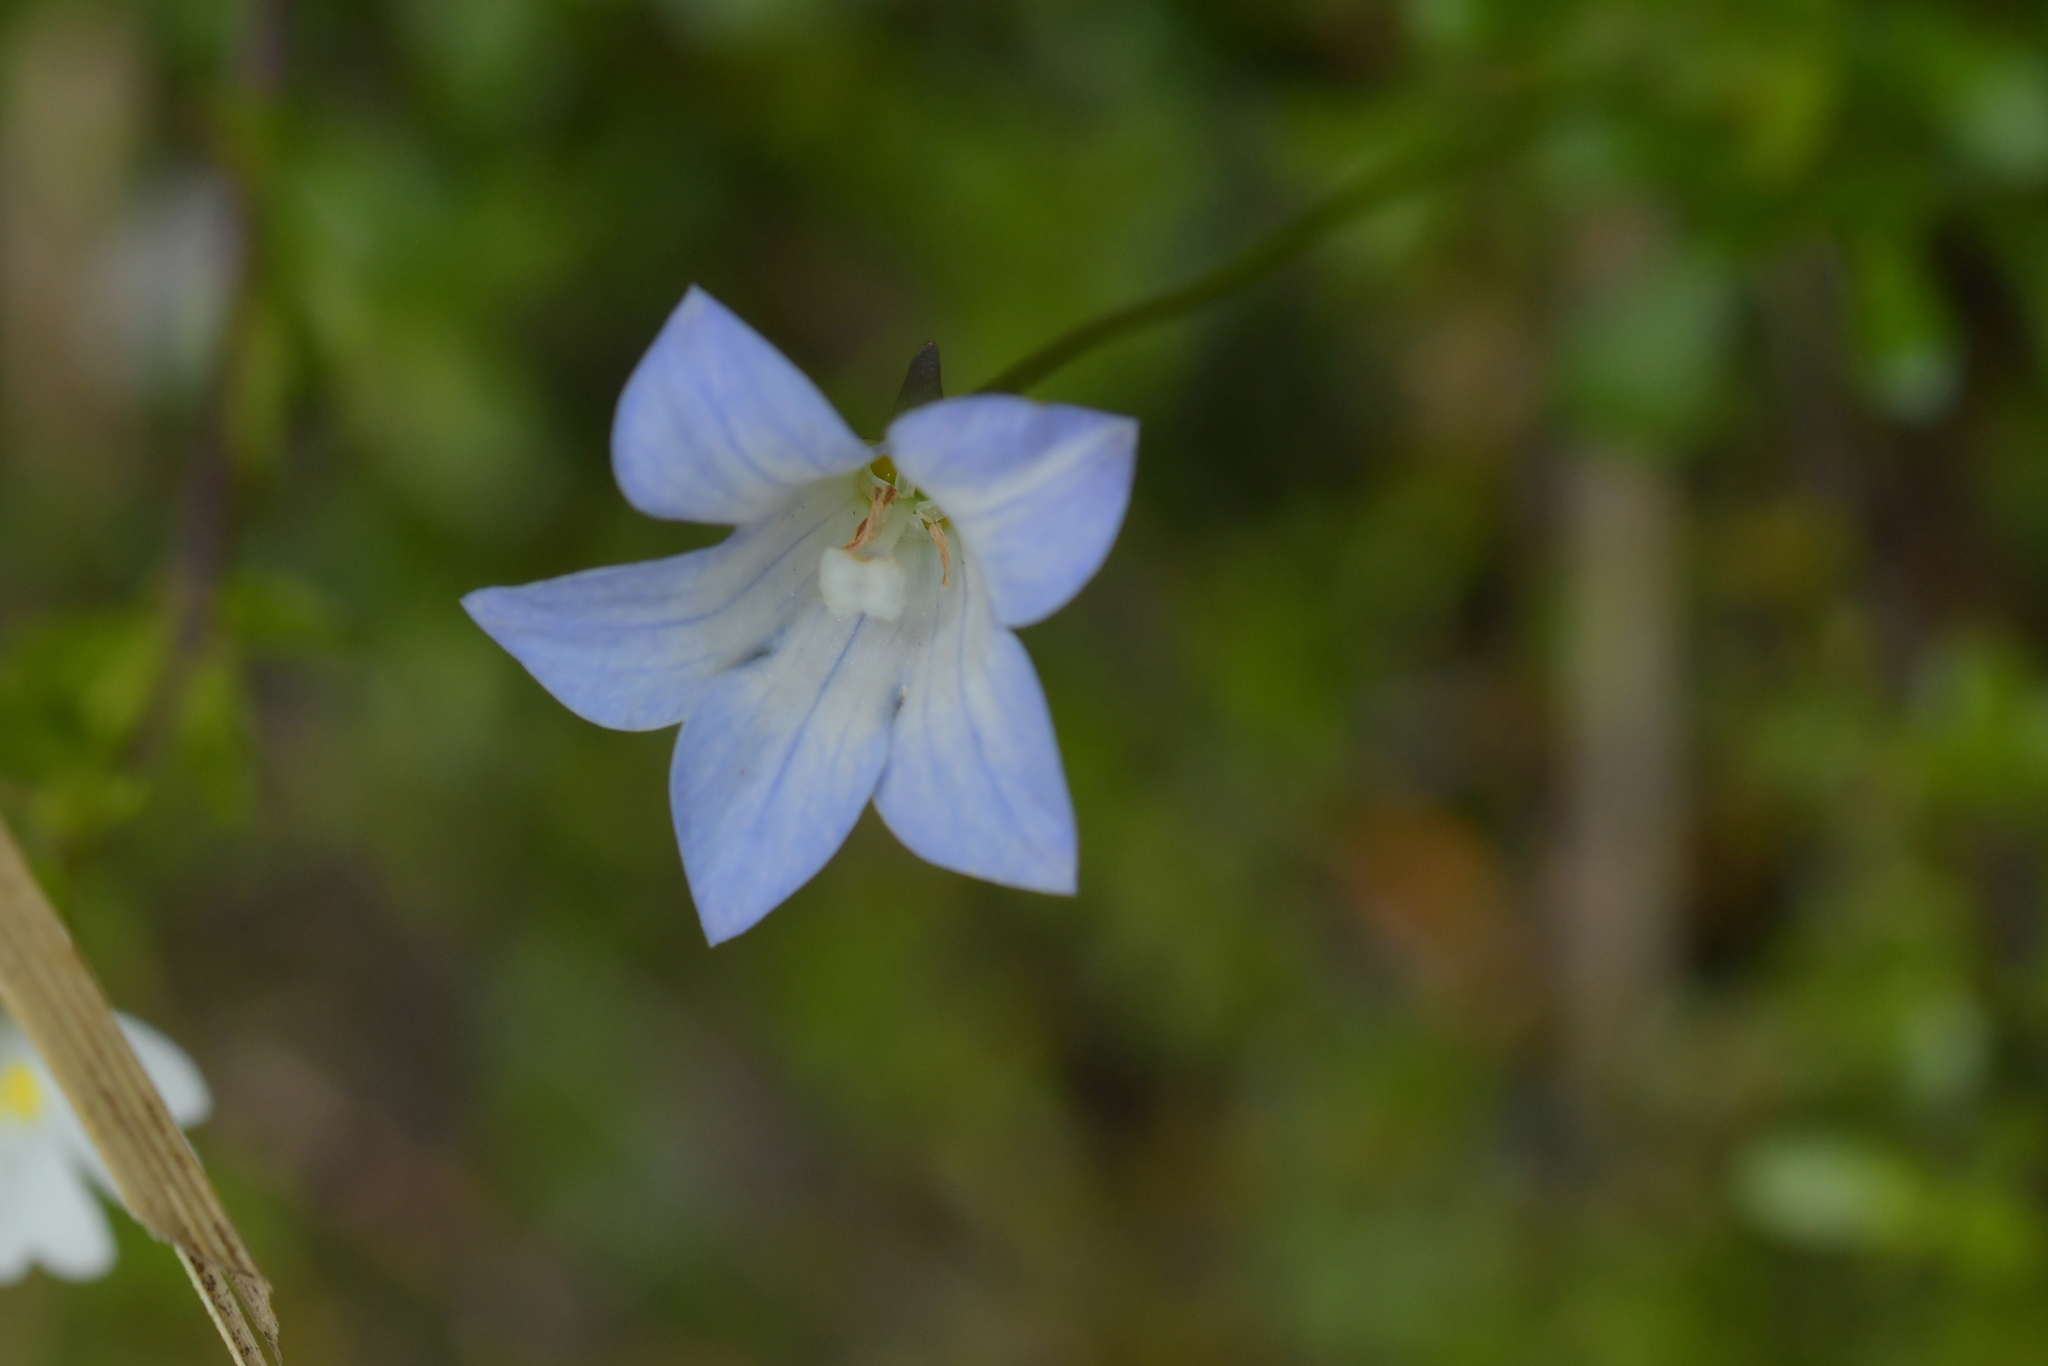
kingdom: Plantae
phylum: Tracheophyta
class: Magnoliopsida
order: Asterales
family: Campanulaceae
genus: Wahlenbergia
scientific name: Wahlenbergia pygmaea
